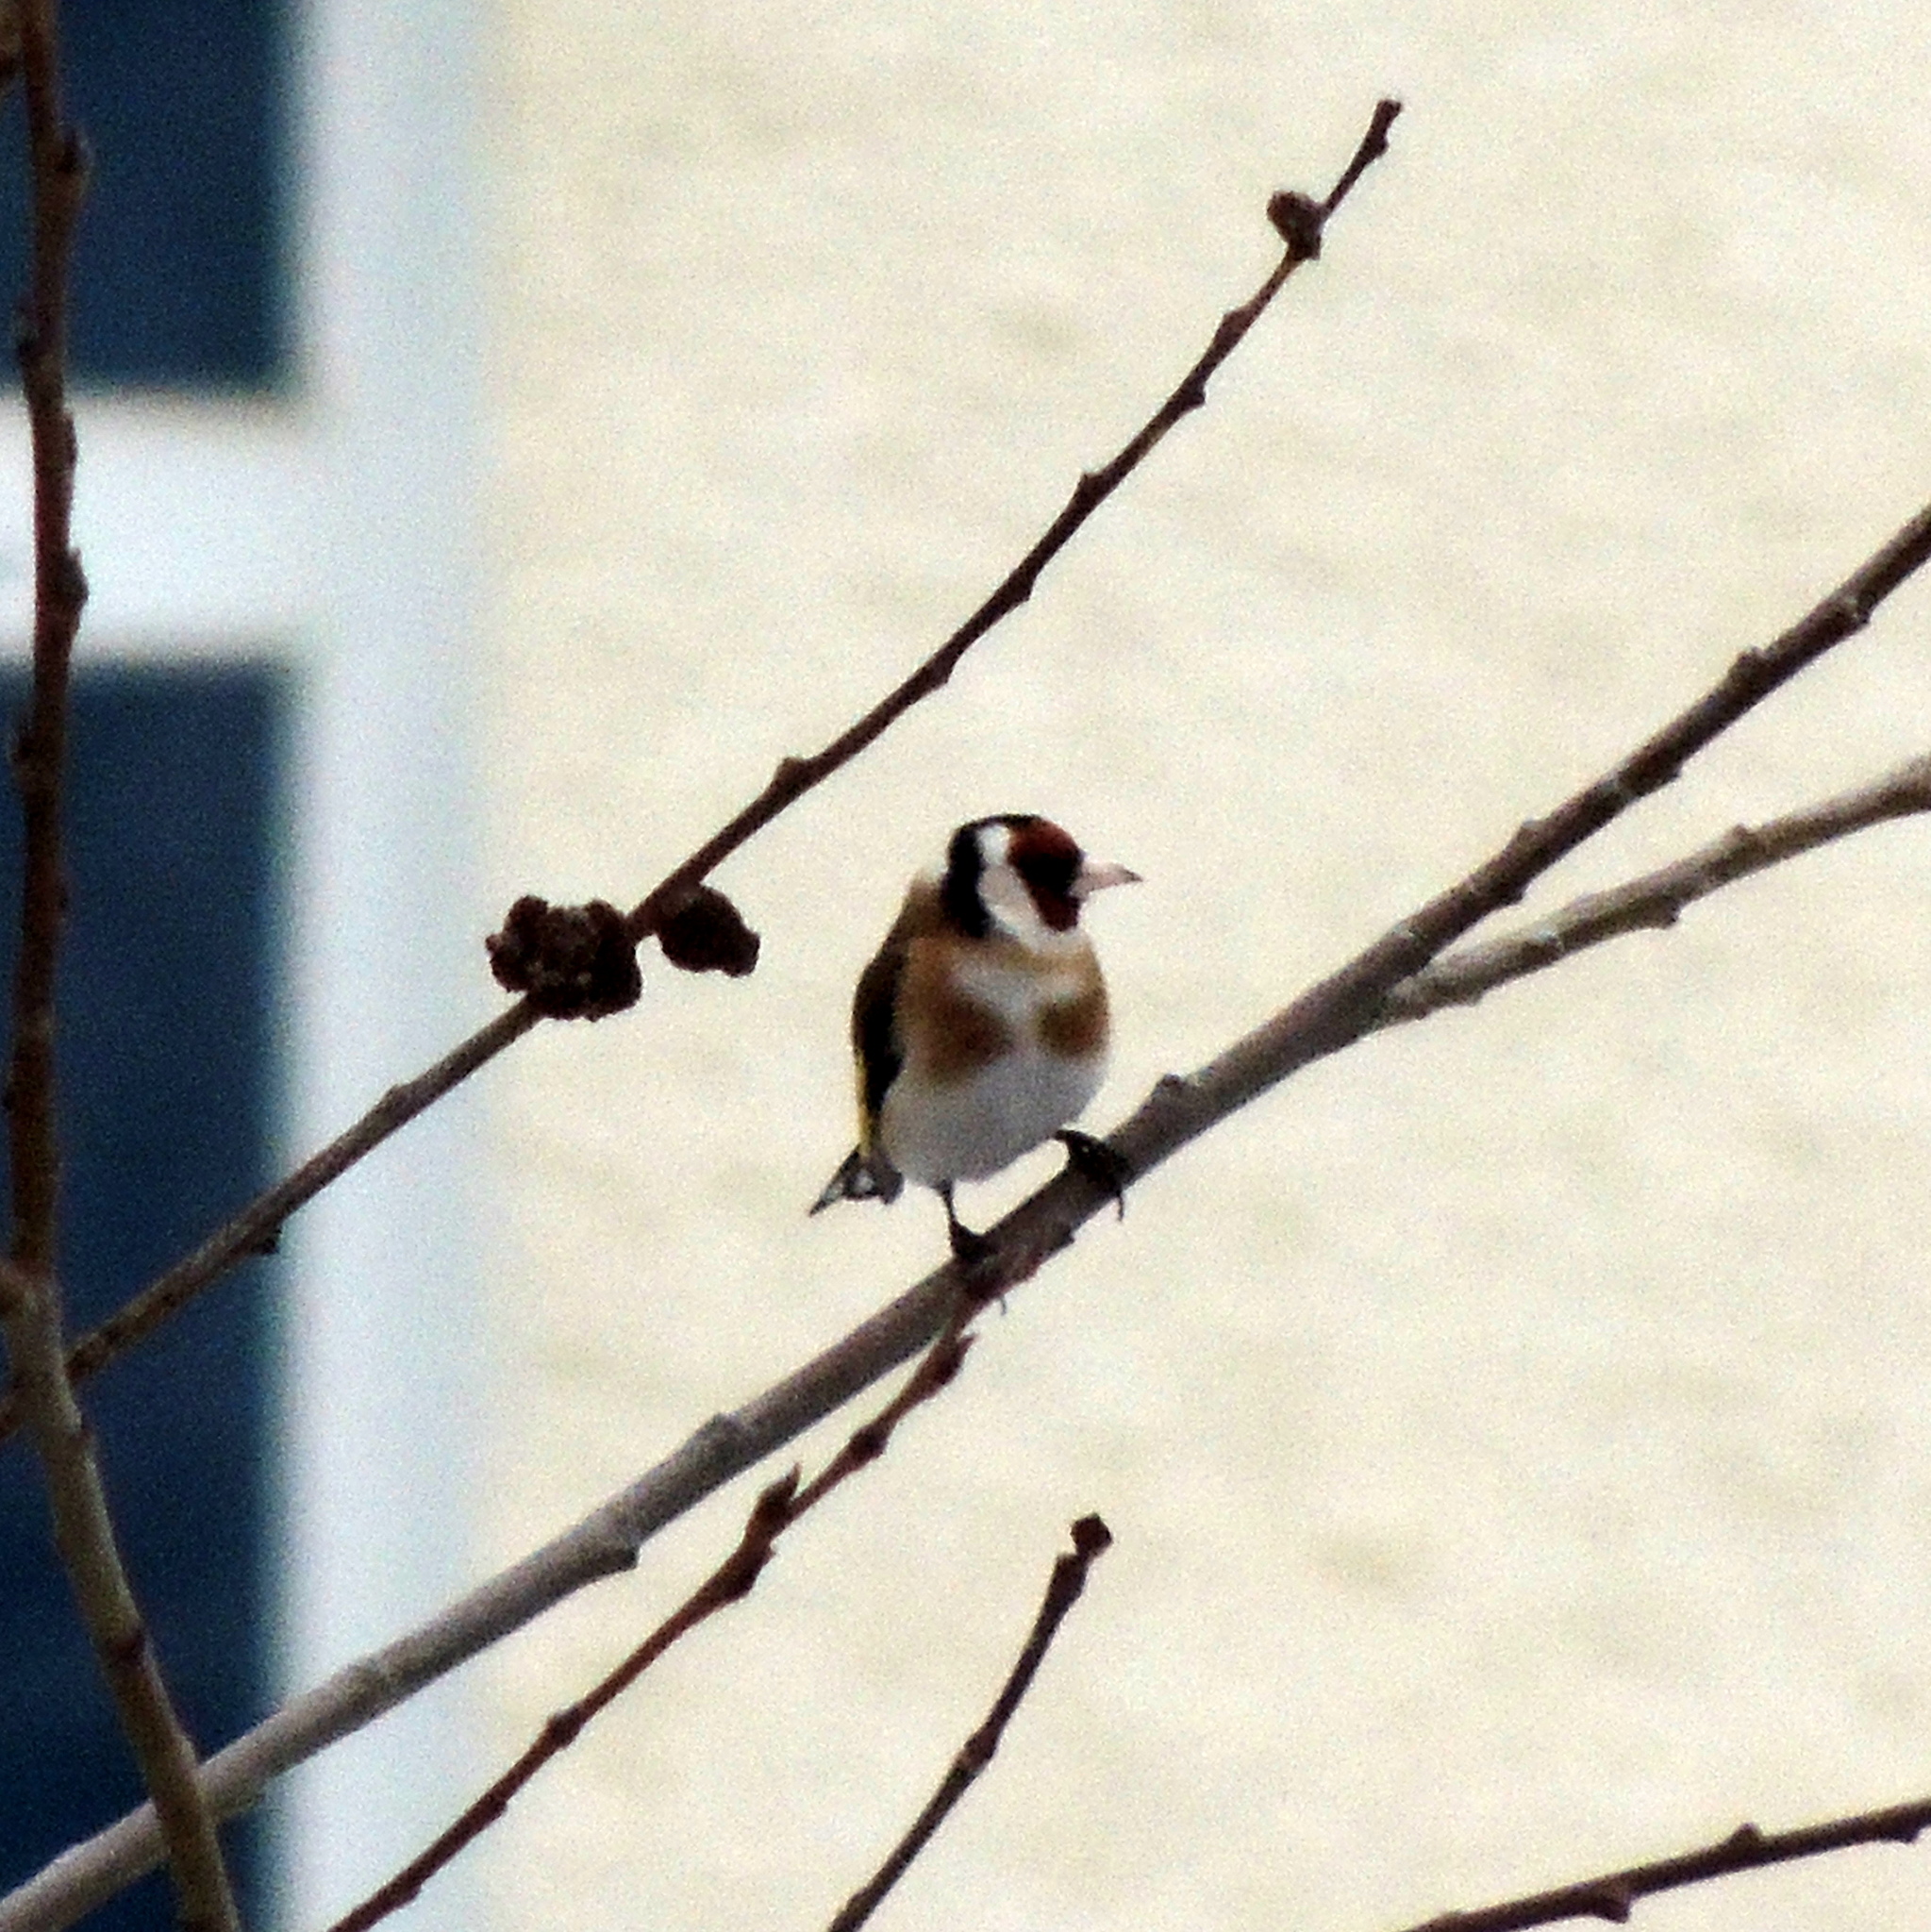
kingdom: Animalia
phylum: Chordata
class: Aves
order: Passeriformes
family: Fringillidae
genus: Carduelis
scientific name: Carduelis carduelis
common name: European goldfinch
